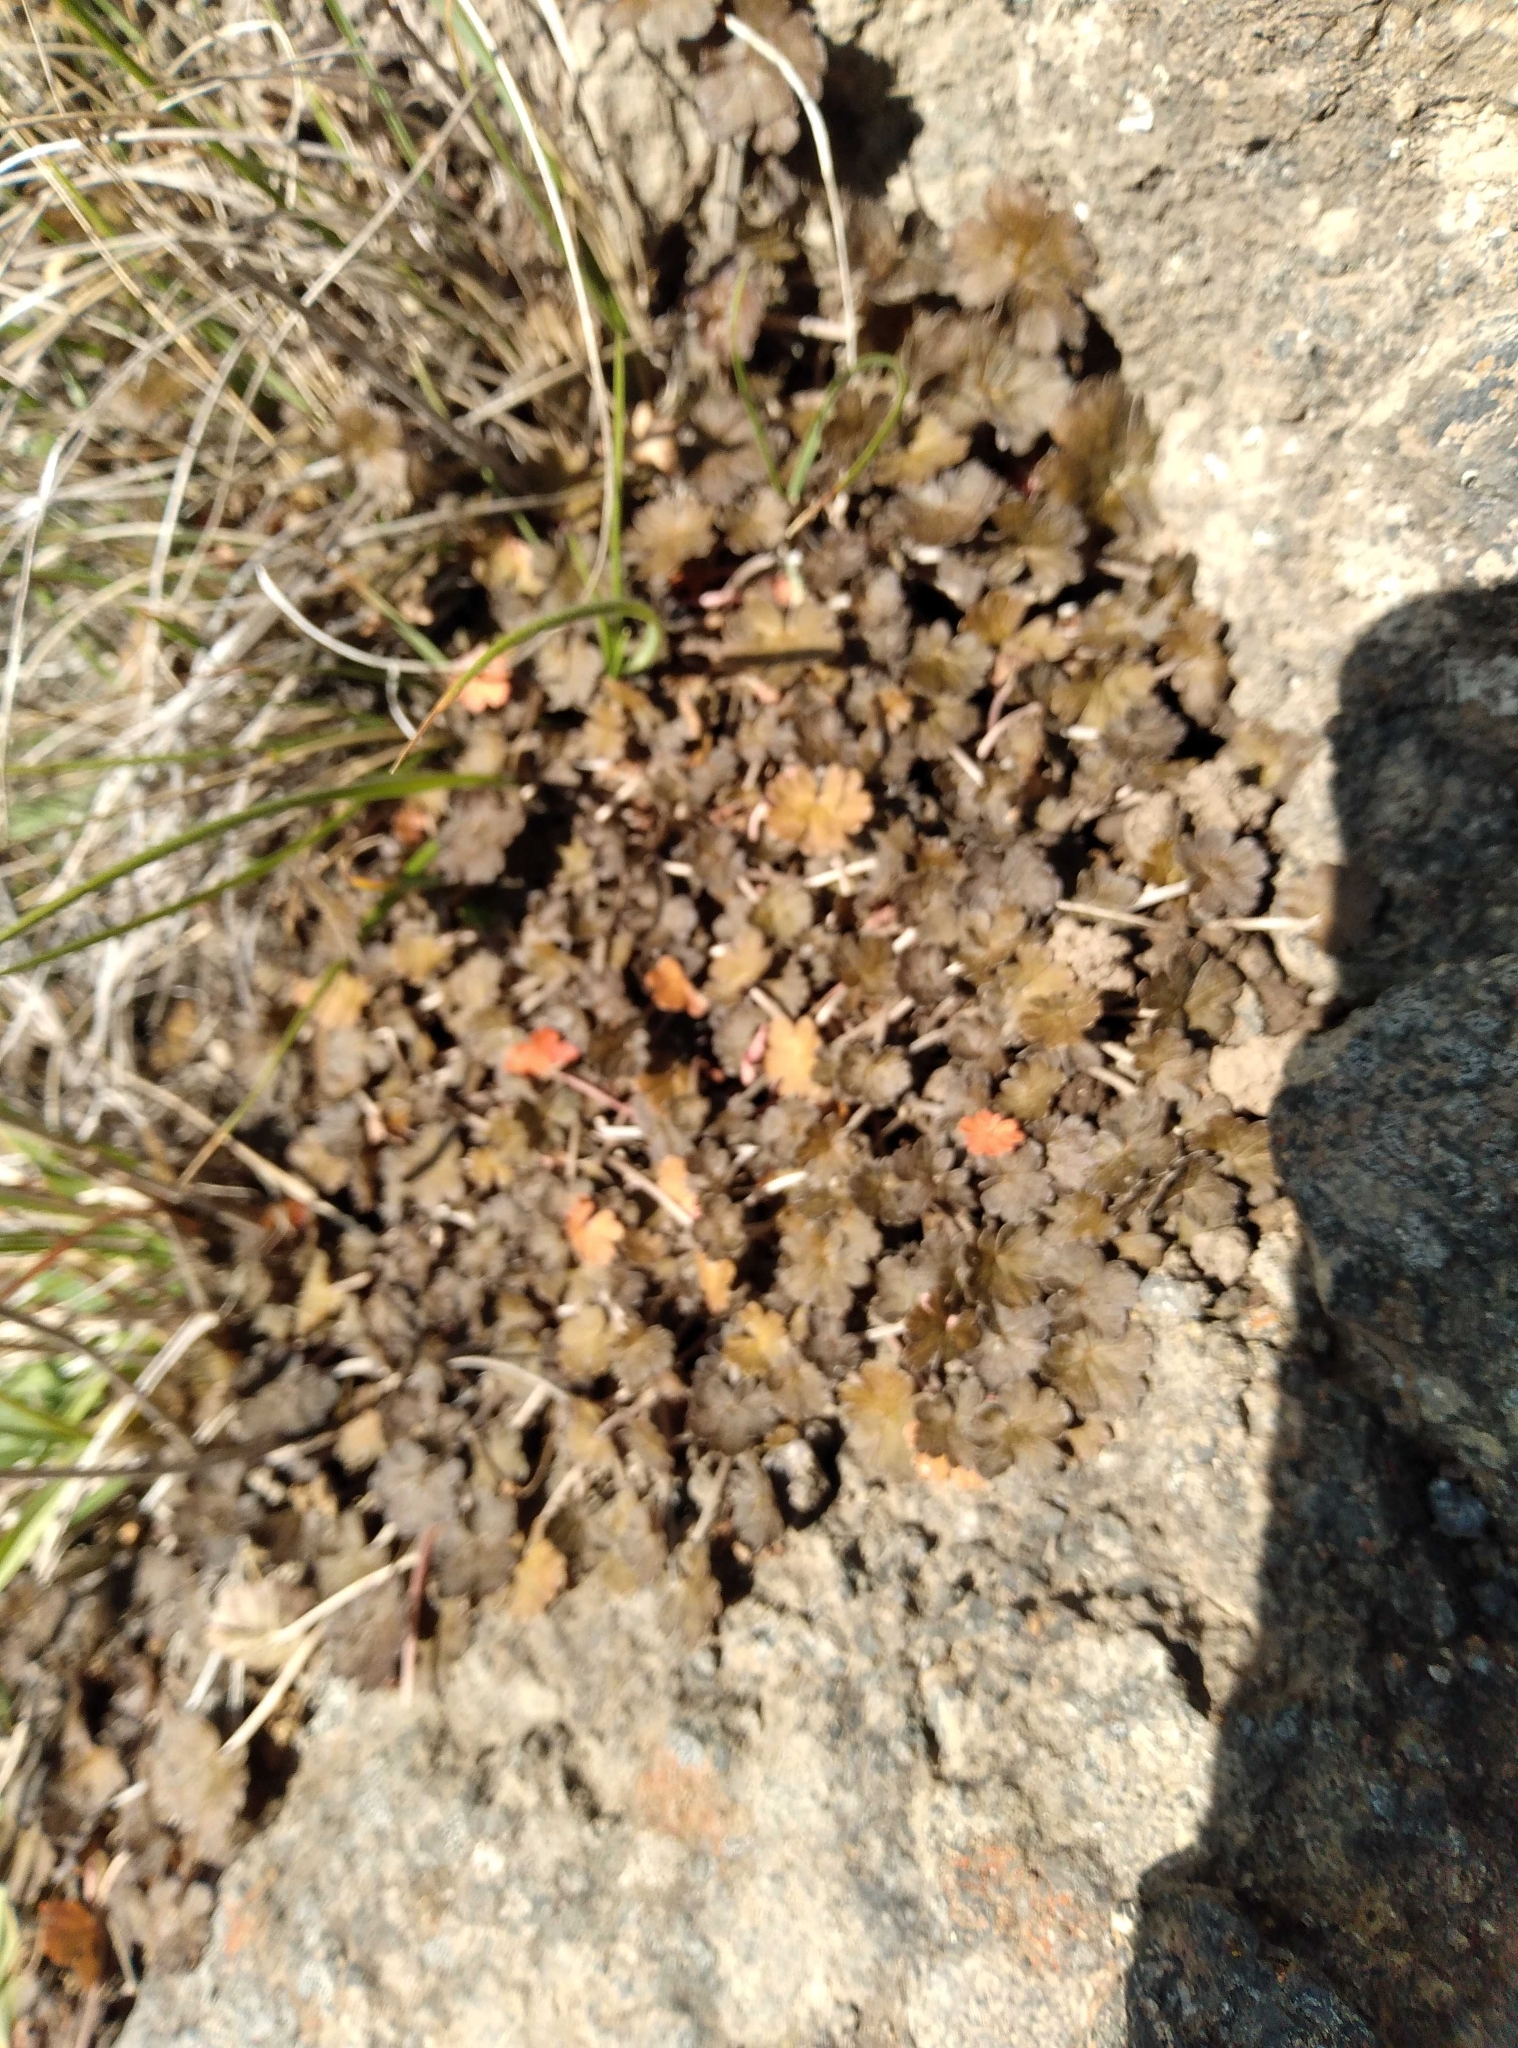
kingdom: Plantae
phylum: Tracheophyta
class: Magnoliopsida
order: Geraniales
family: Geraniaceae
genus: Geranium
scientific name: Geranium brevicaule
